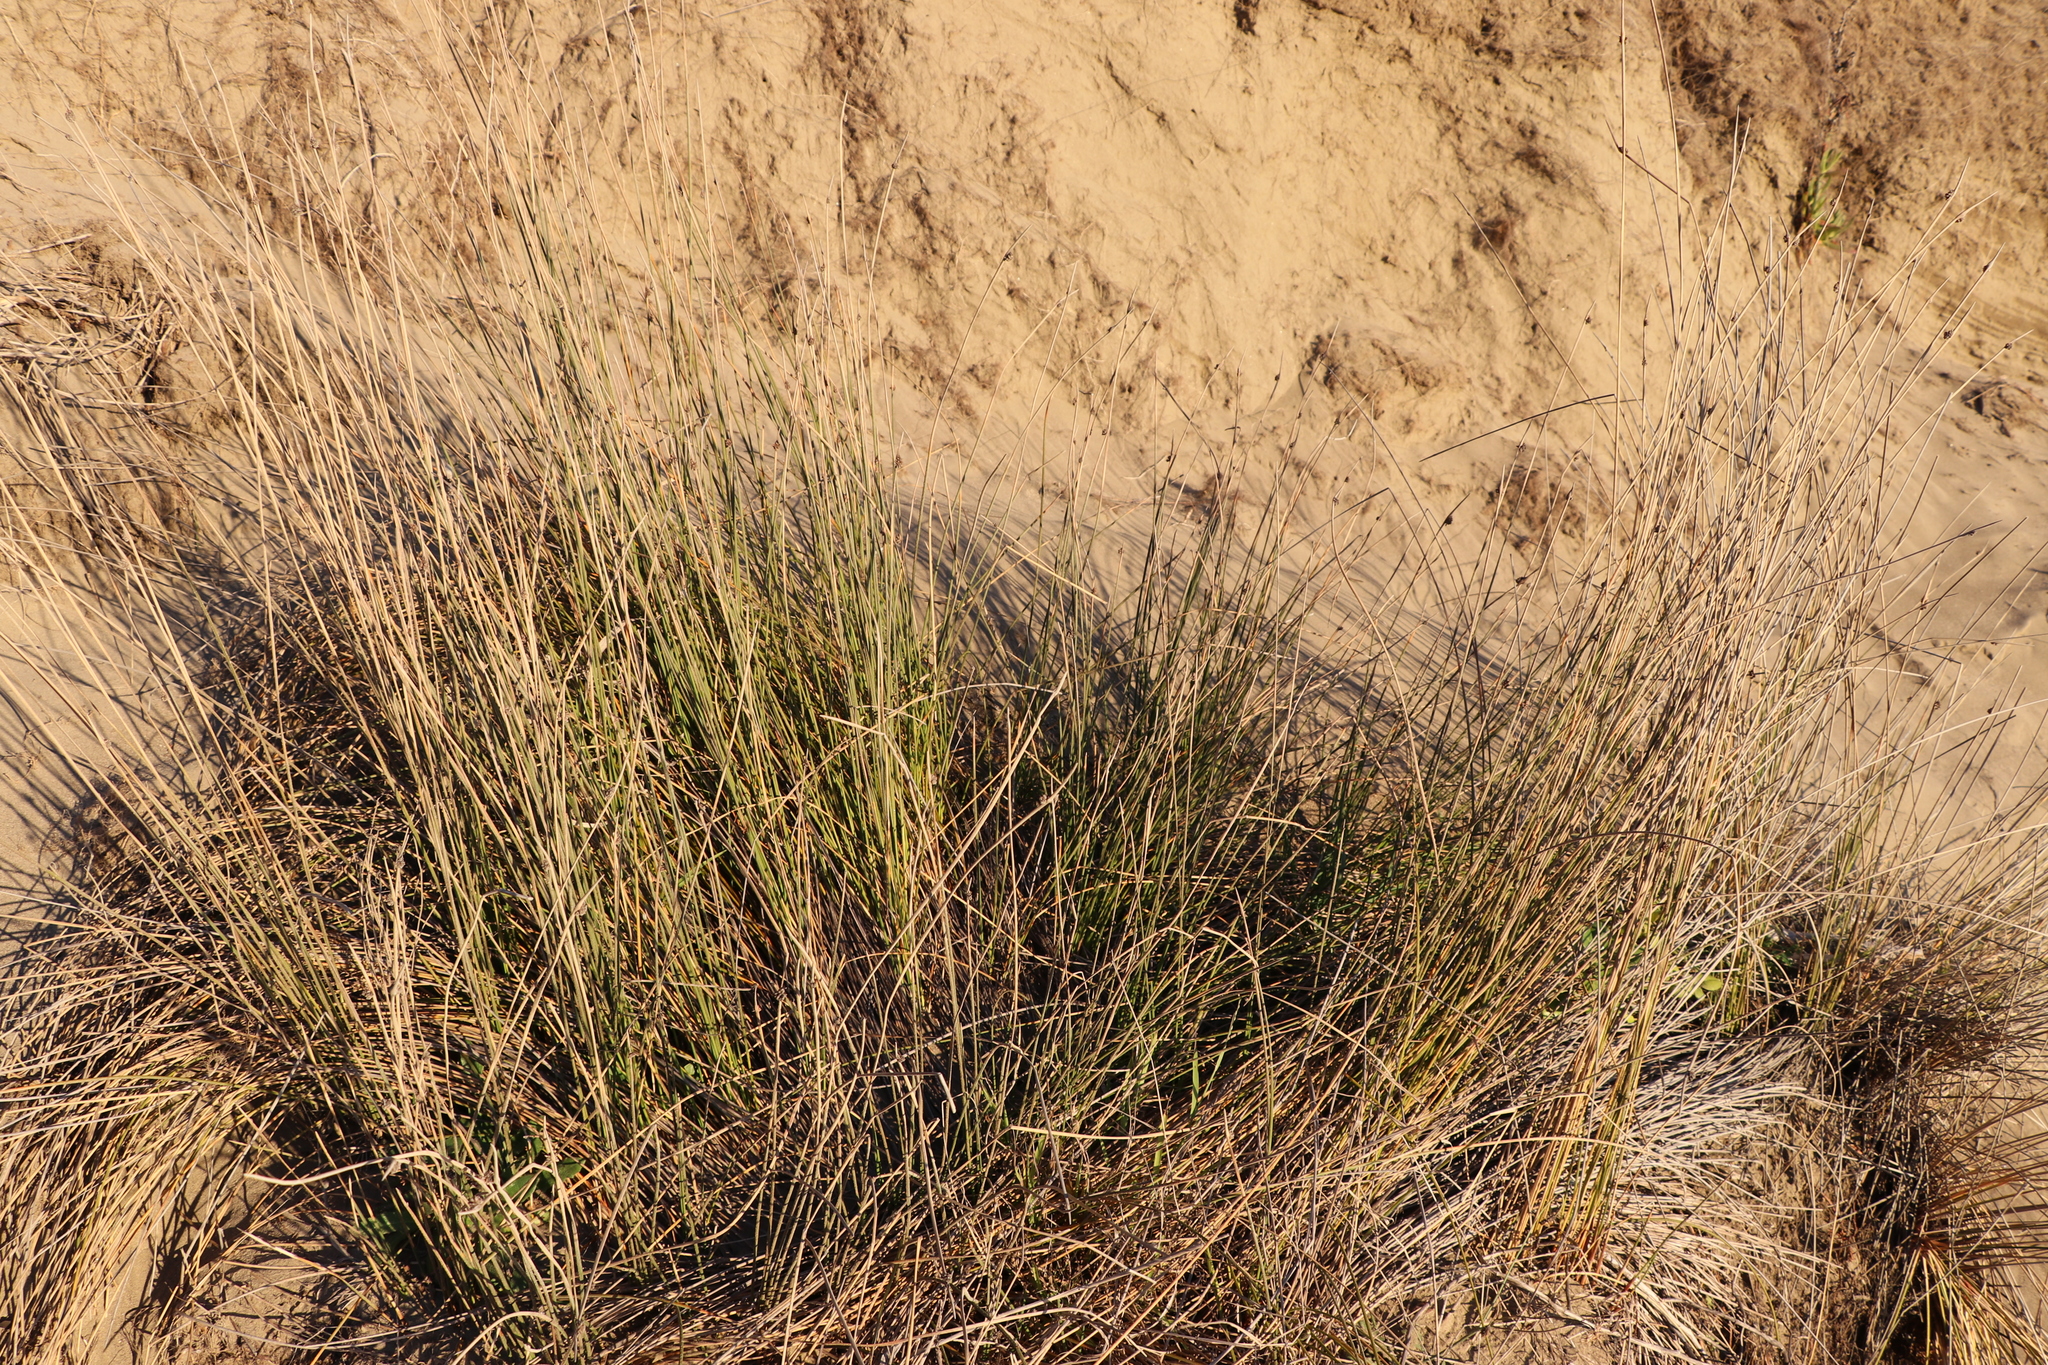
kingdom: Plantae
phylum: Tracheophyta
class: Liliopsida
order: Poales
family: Cyperaceae
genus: Ficinia
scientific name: Ficinia nodosa
